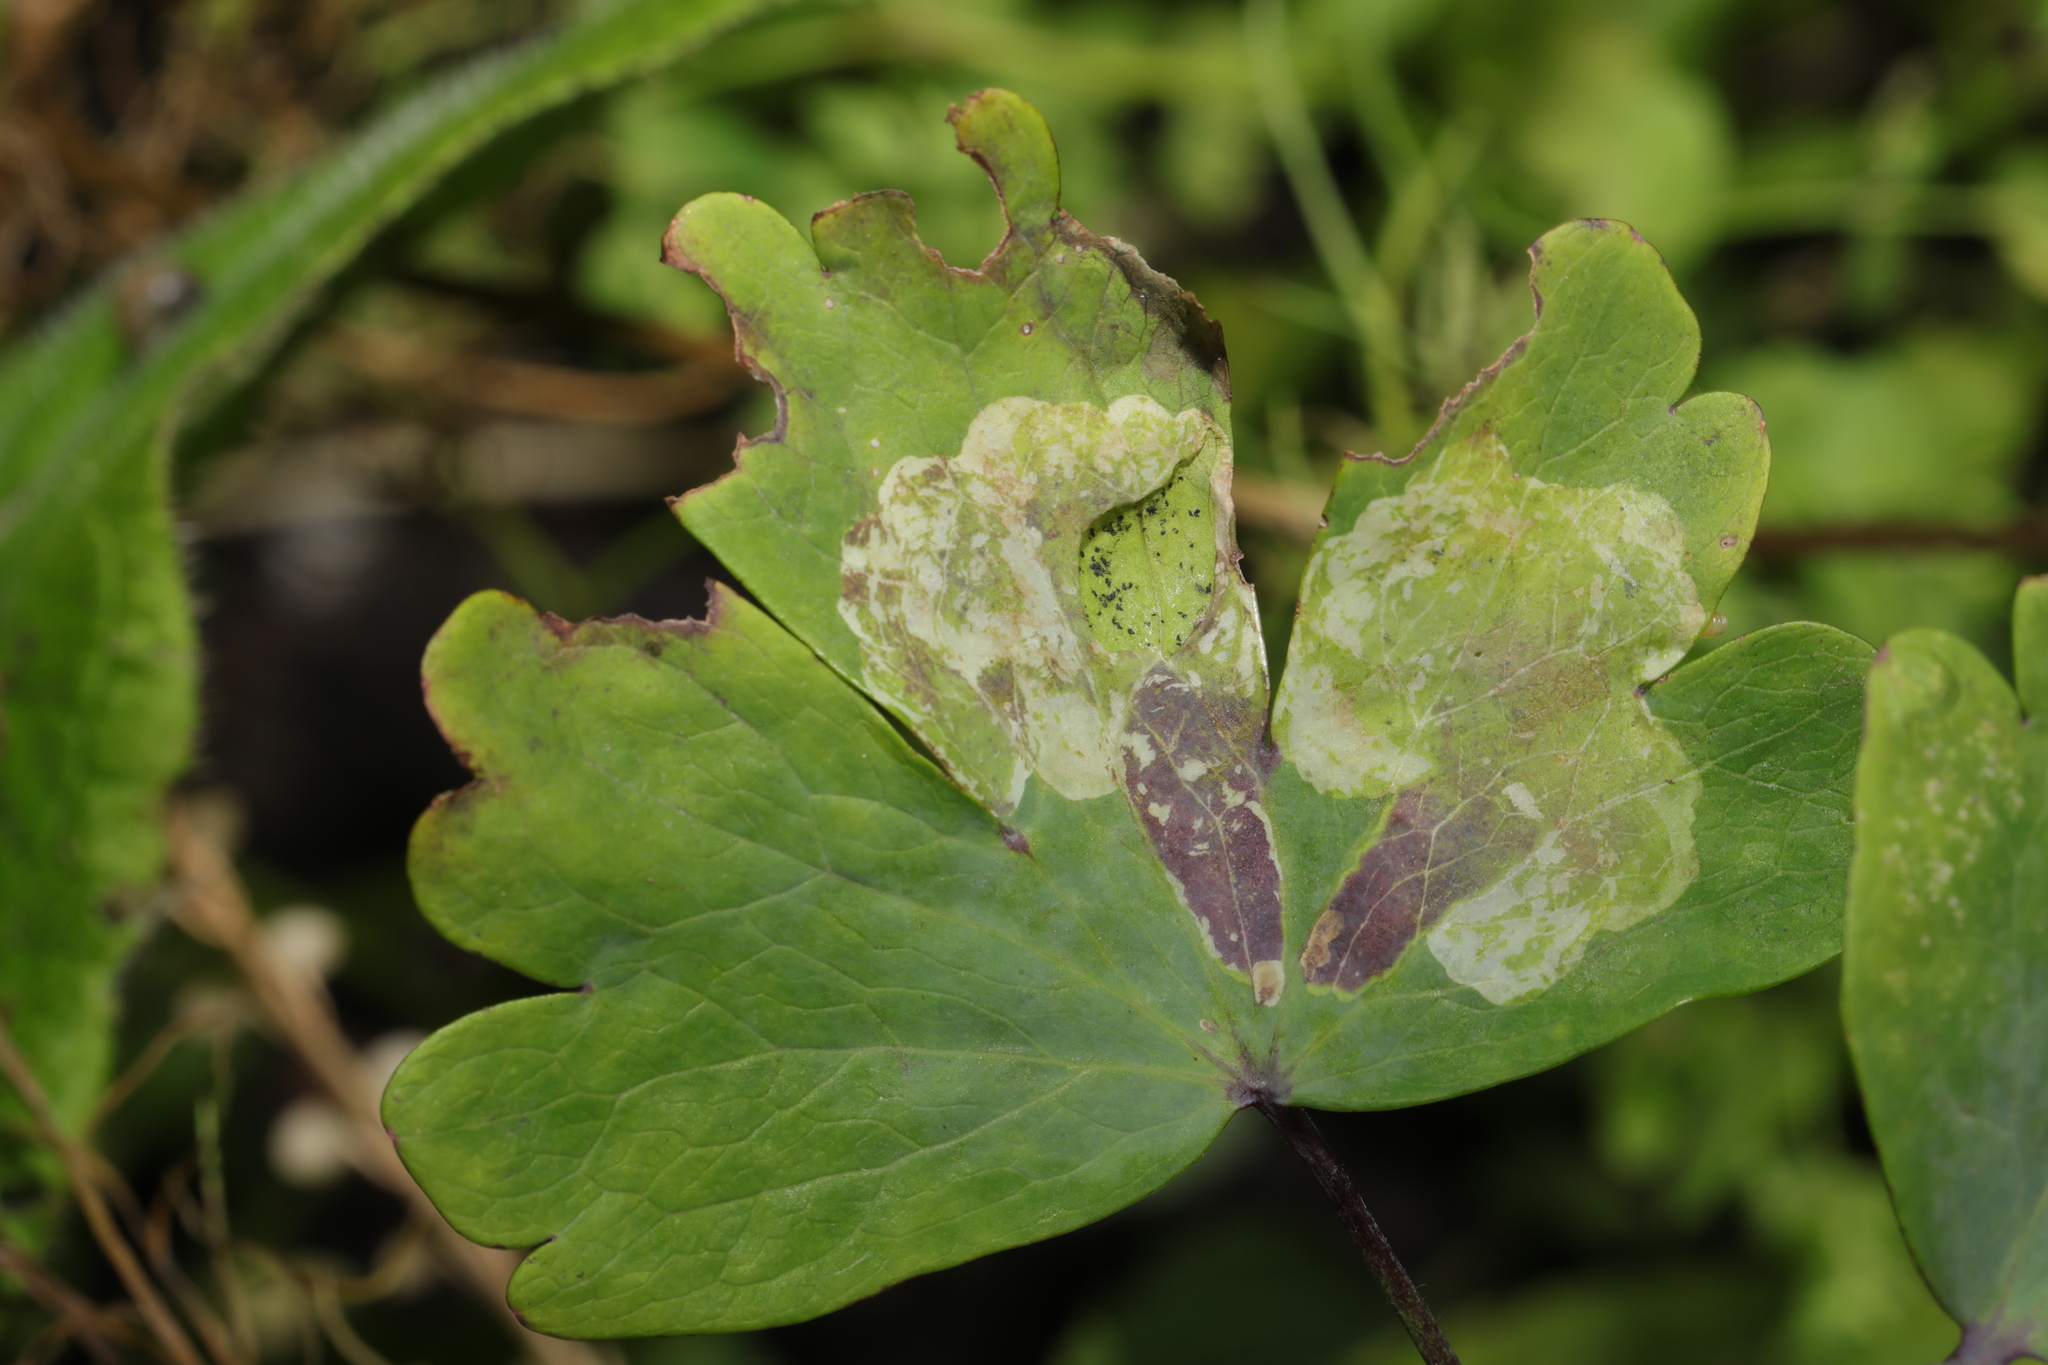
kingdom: Animalia
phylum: Arthropoda
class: Insecta
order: Diptera
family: Agromyzidae
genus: Phytomyza
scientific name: Phytomyza aquilegiae
